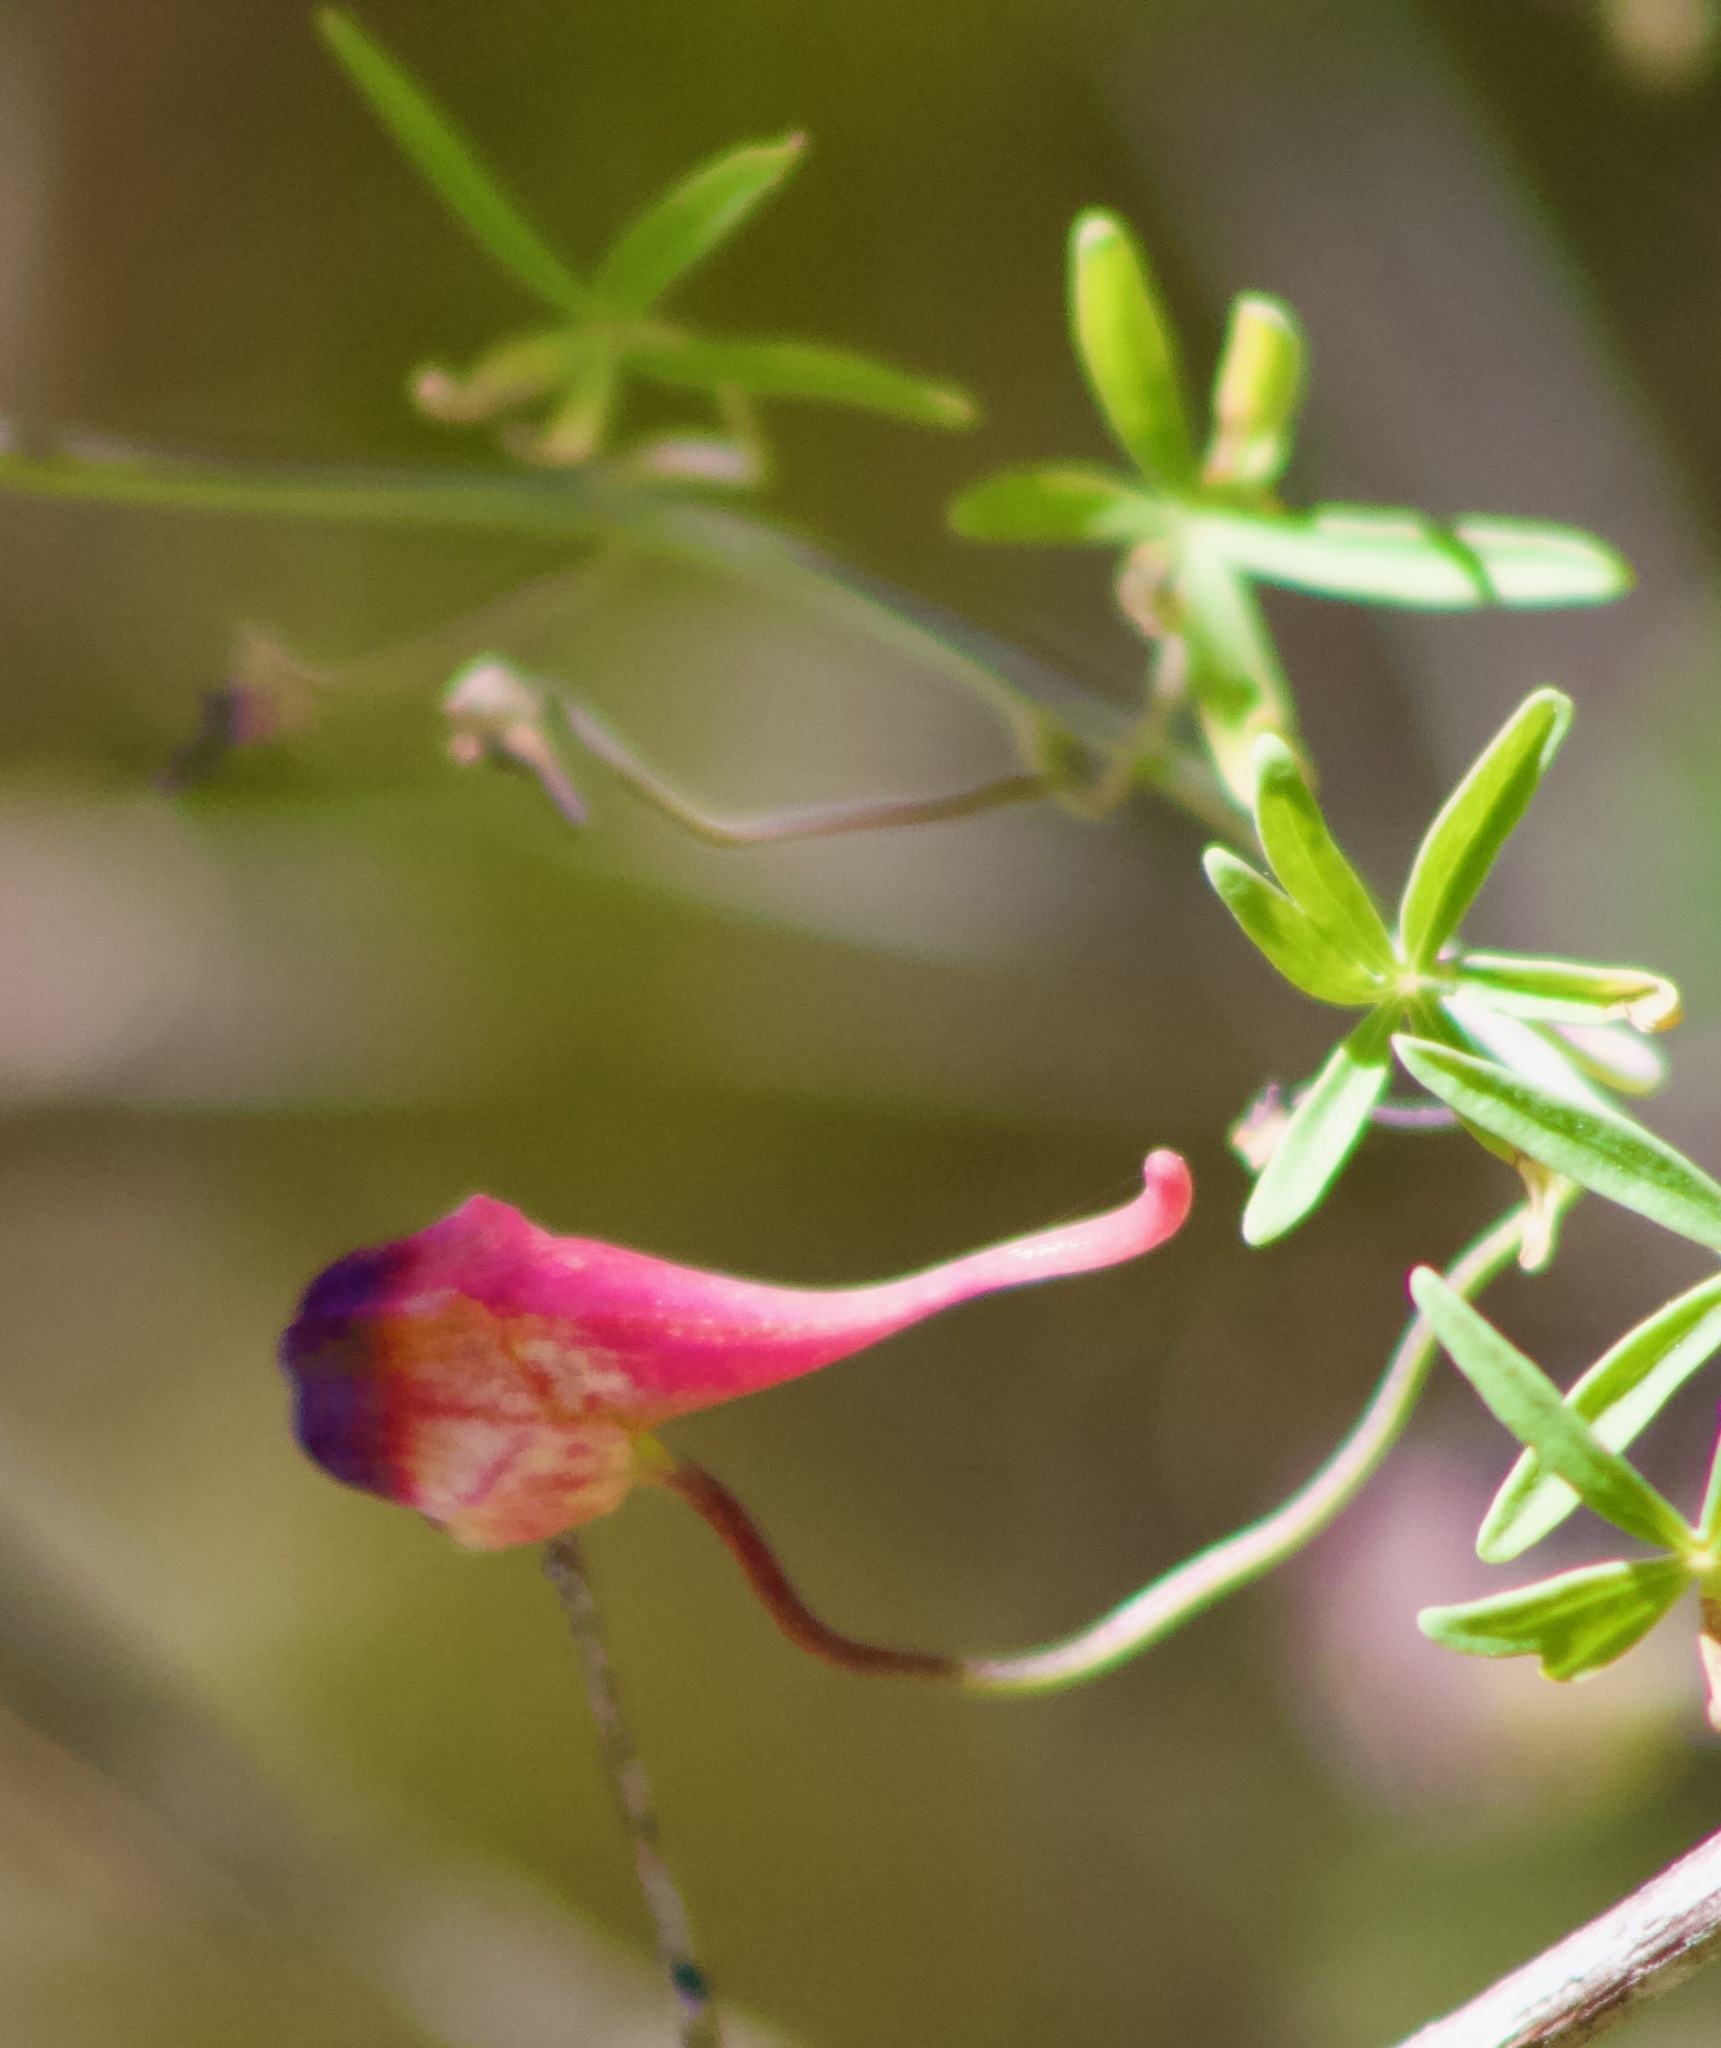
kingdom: Plantae
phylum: Tracheophyta
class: Magnoliopsida
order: Brassicales
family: Tropaeolaceae
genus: Tropaeolum
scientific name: Tropaeolum tricolor
